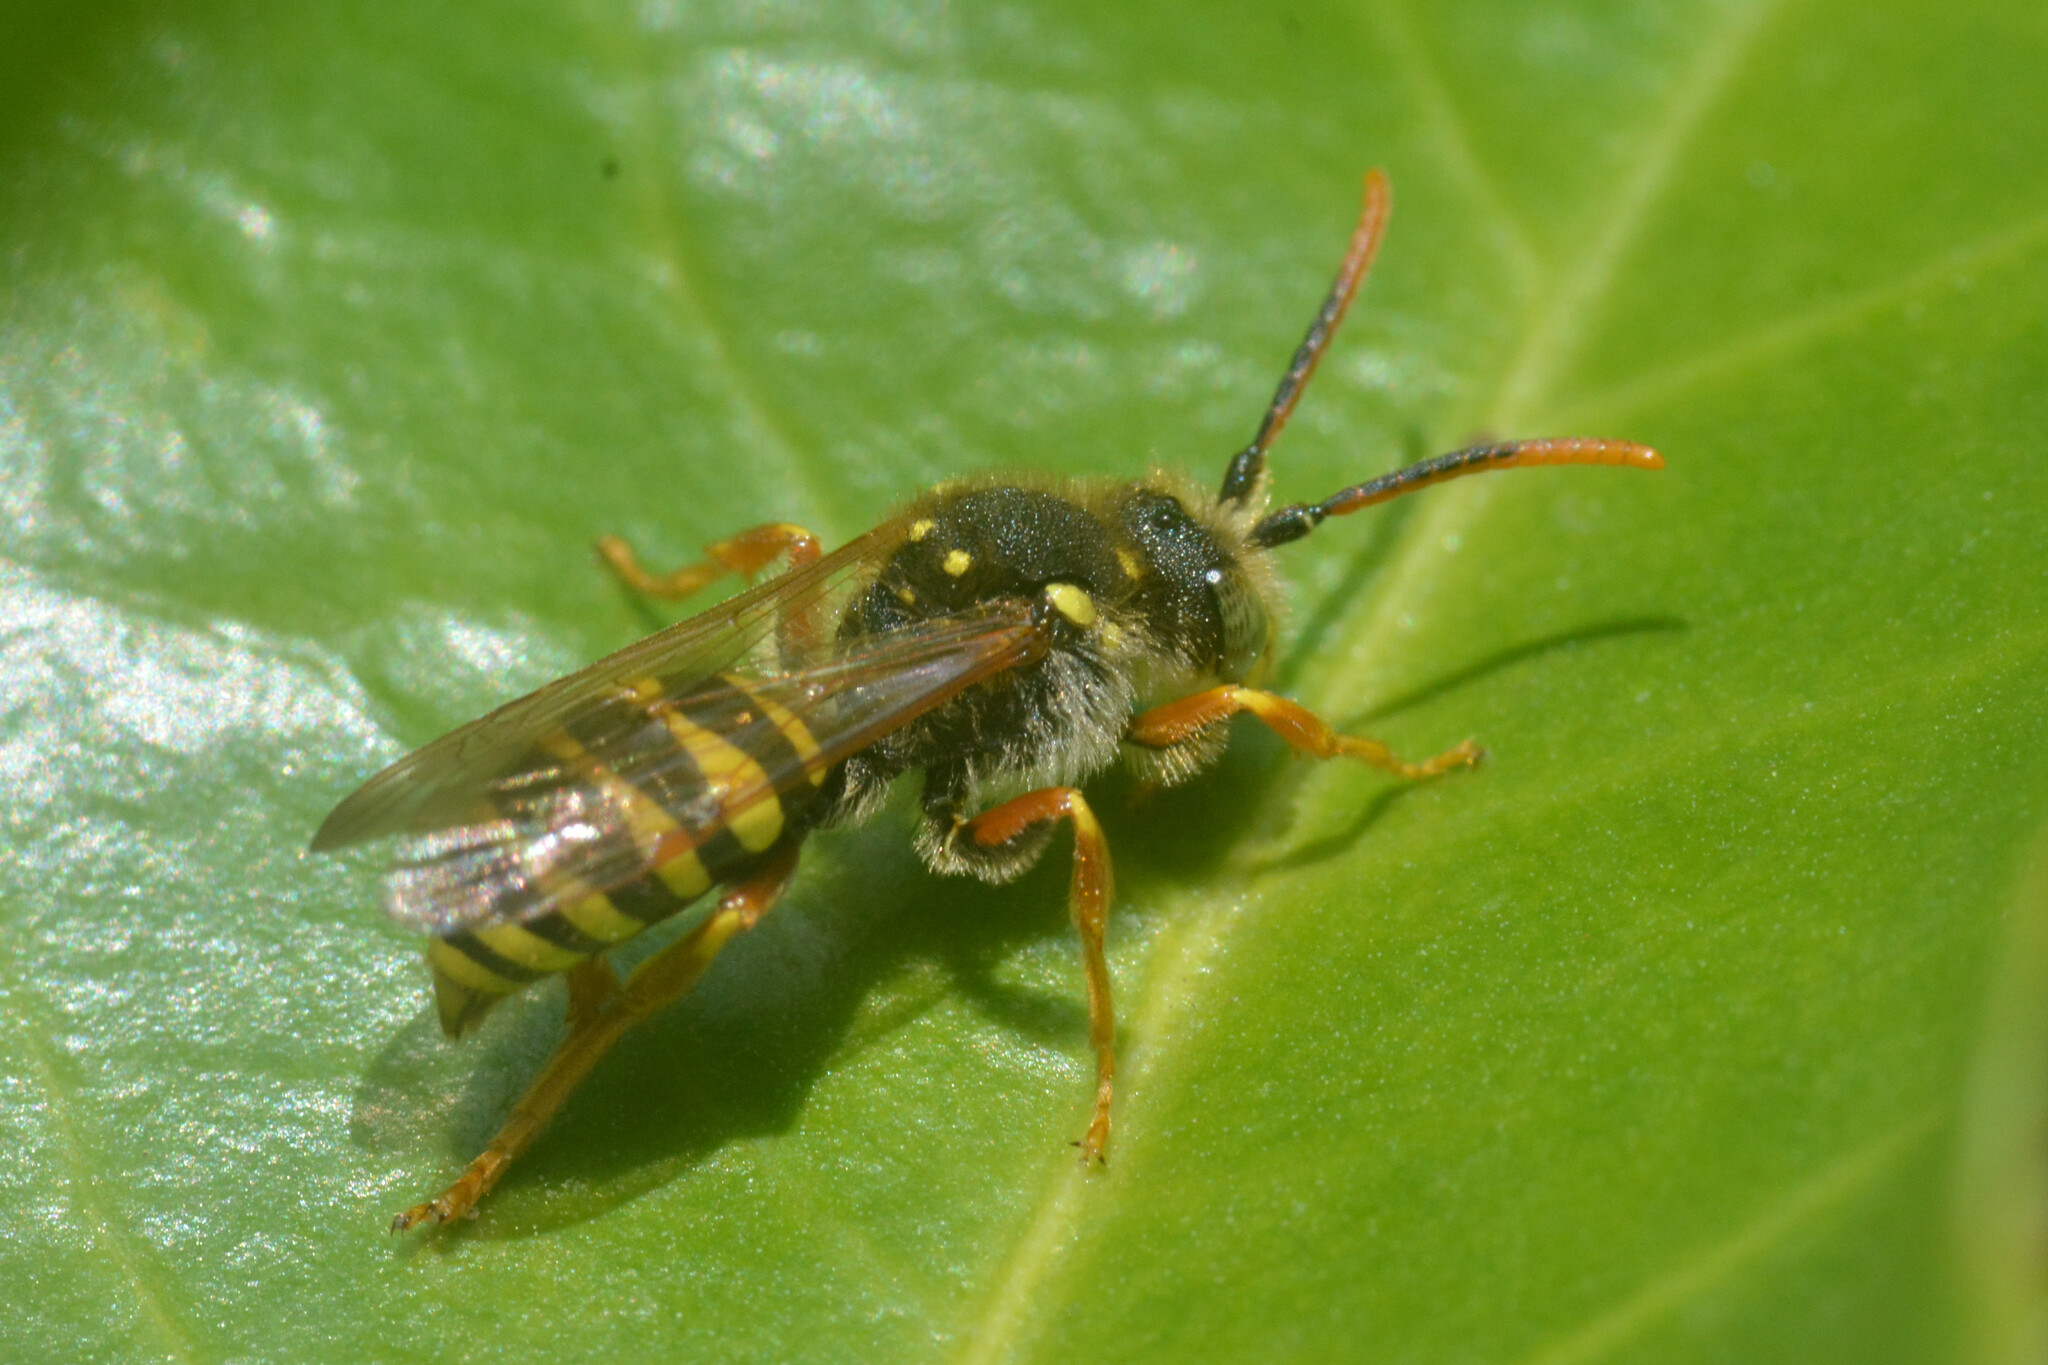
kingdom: Animalia
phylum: Arthropoda
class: Insecta
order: Hymenoptera
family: Apidae
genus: Nomada
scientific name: Nomada goodeniana
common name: Gooden's nomad bee
